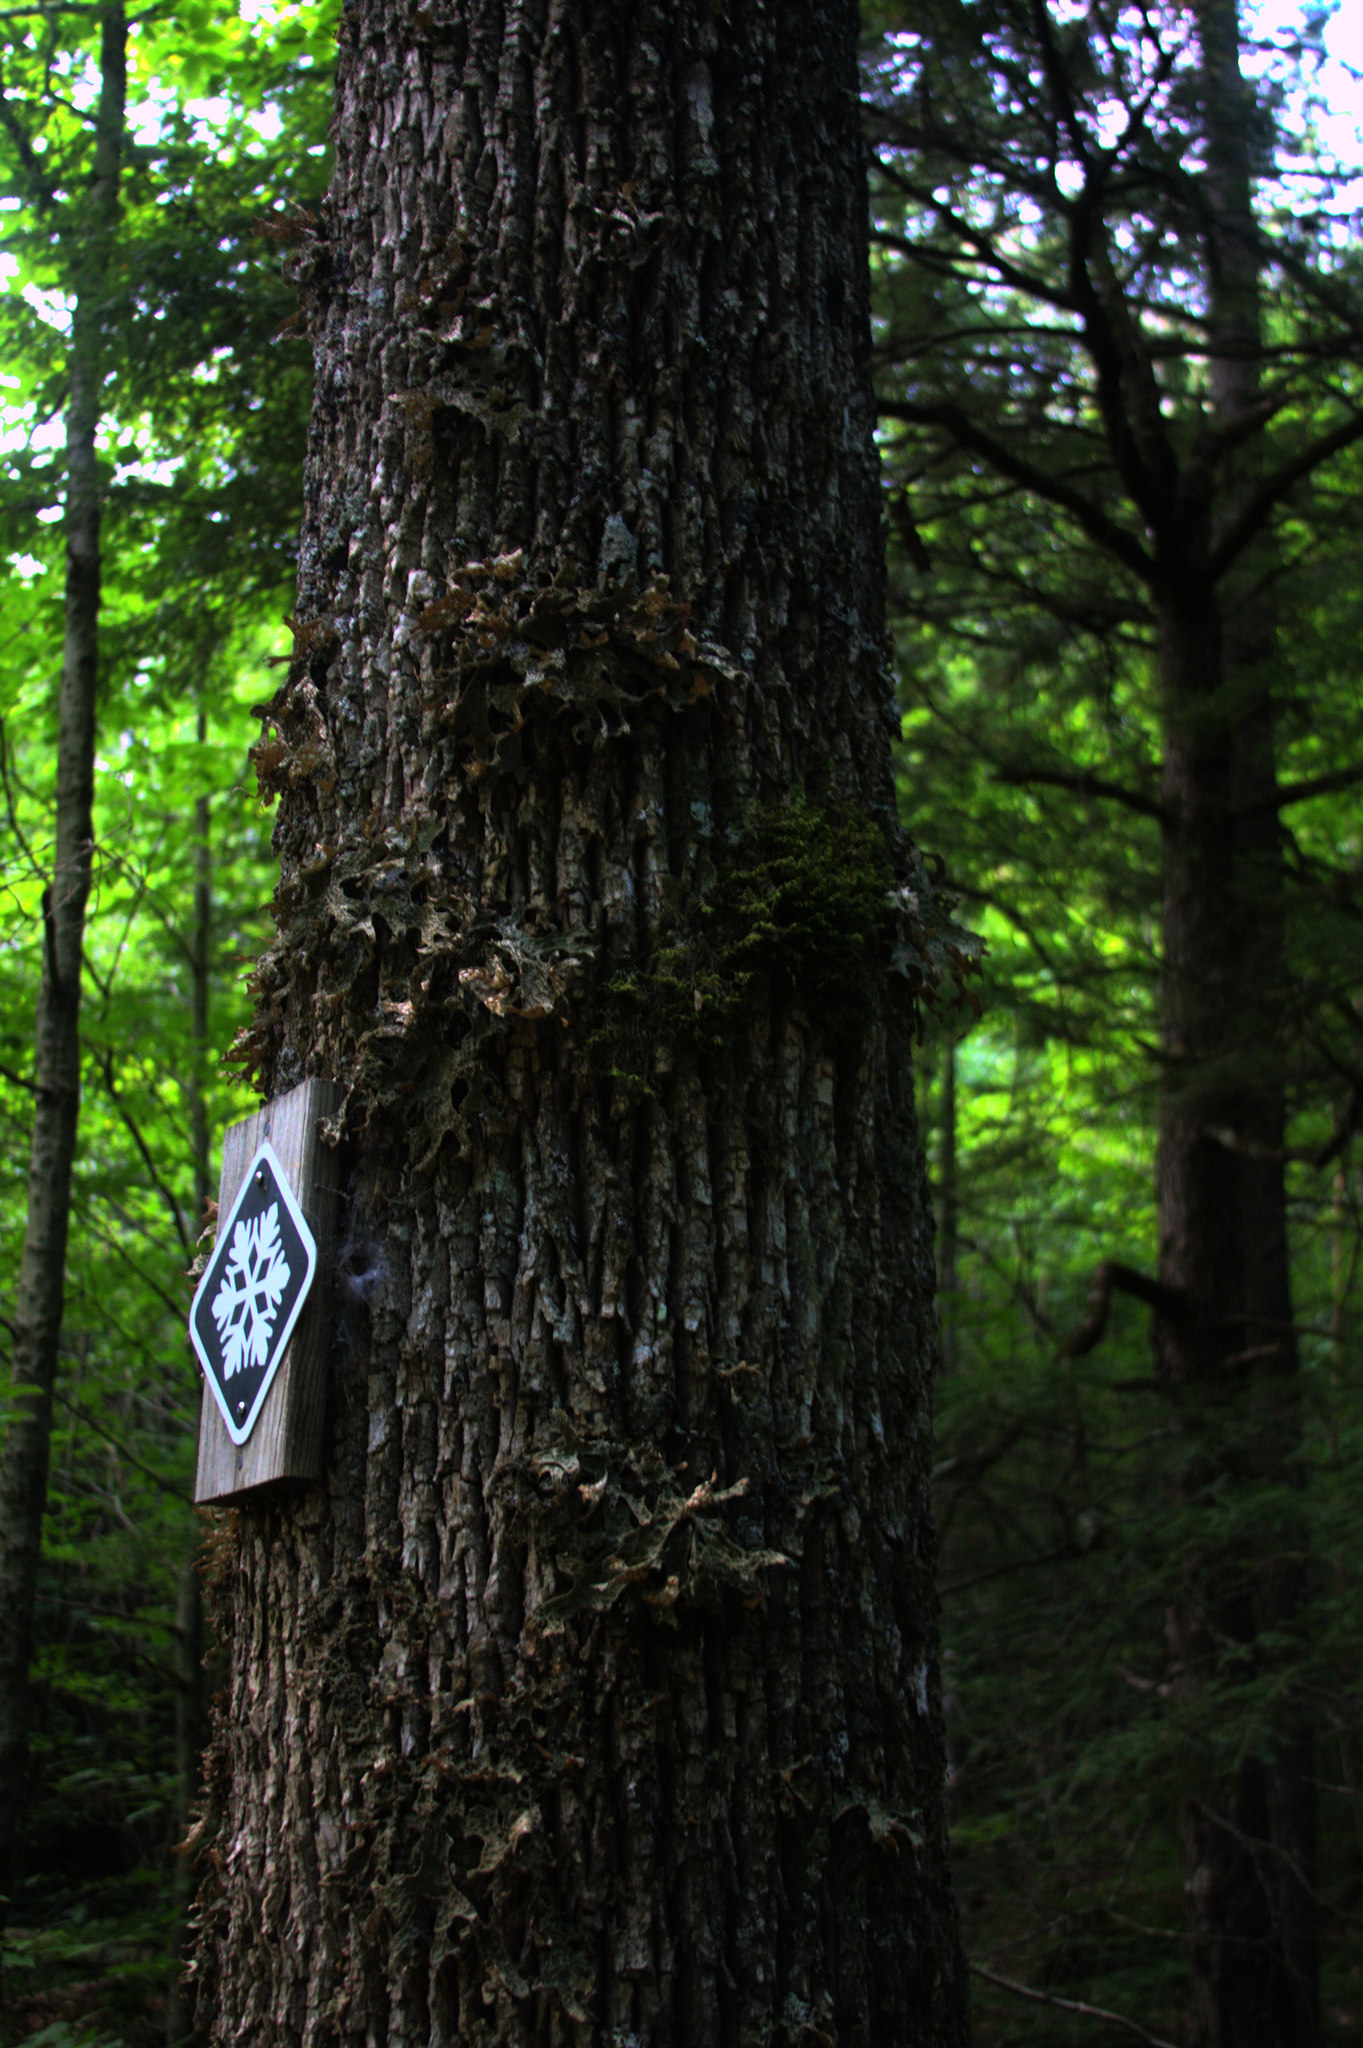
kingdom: Fungi
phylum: Ascomycota
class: Lecanoromycetes
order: Peltigerales
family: Lobariaceae
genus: Lobaria
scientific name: Lobaria pulmonaria
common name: Lungwort
